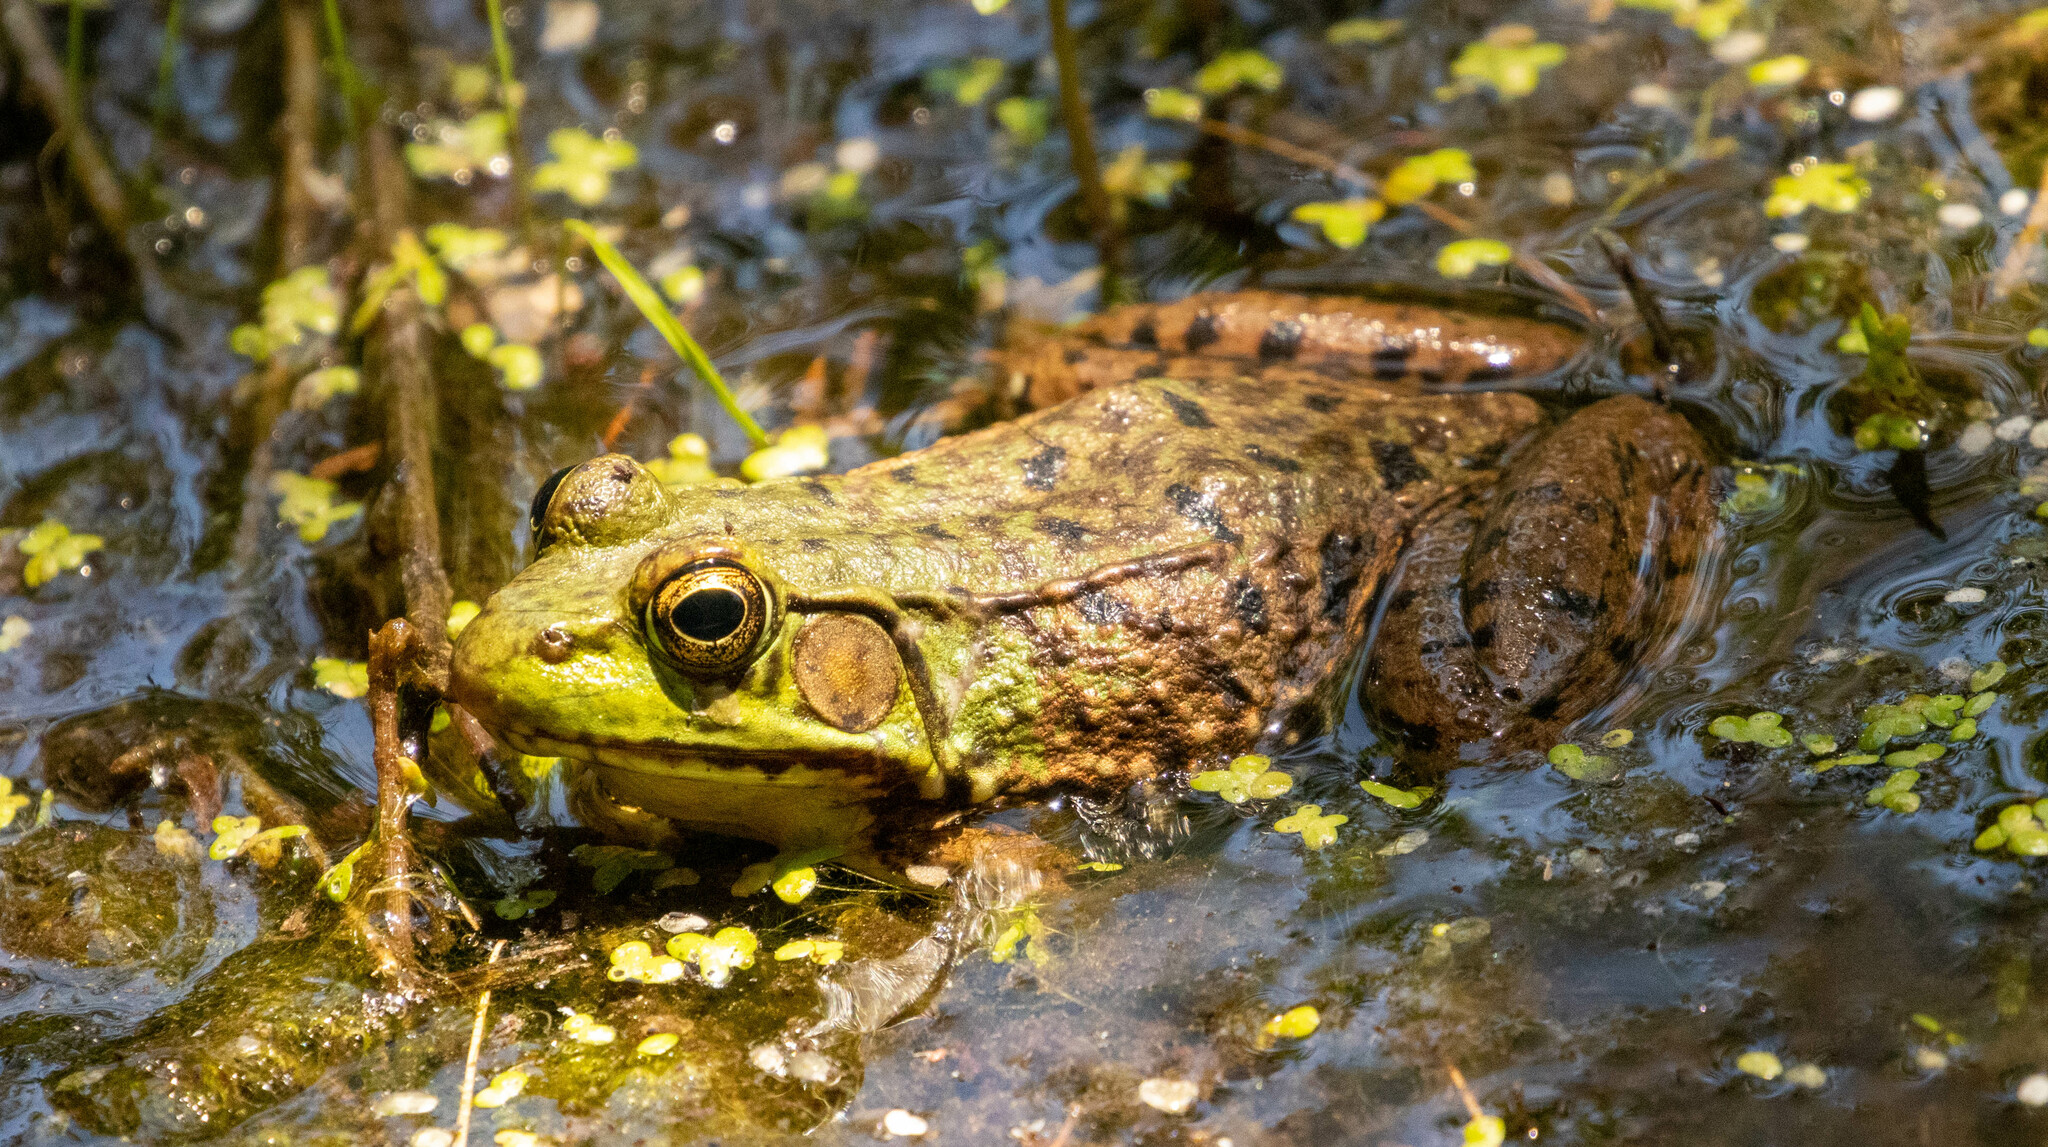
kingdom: Animalia
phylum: Chordata
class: Amphibia
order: Anura
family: Ranidae
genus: Lithobates
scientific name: Lithobates clamitans
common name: Green frog
